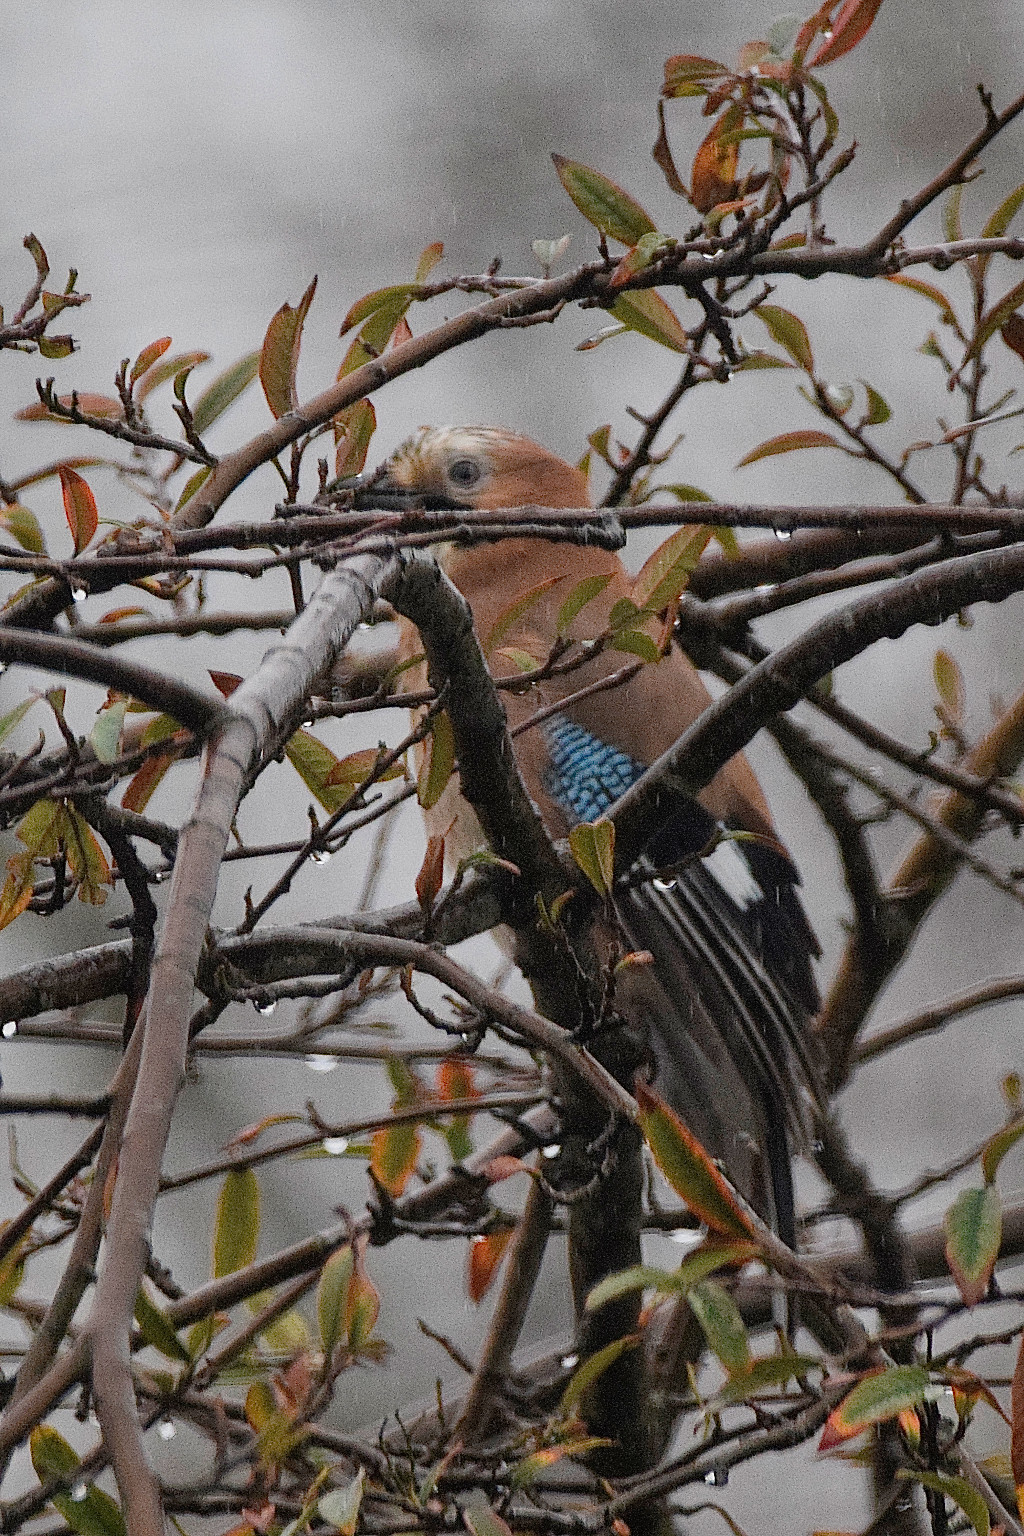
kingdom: Animalia
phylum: Chordata
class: Aves
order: Passeriformes
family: Corvidae
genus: Garrulus
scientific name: Garrulus glandarius
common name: Eurasian jay
